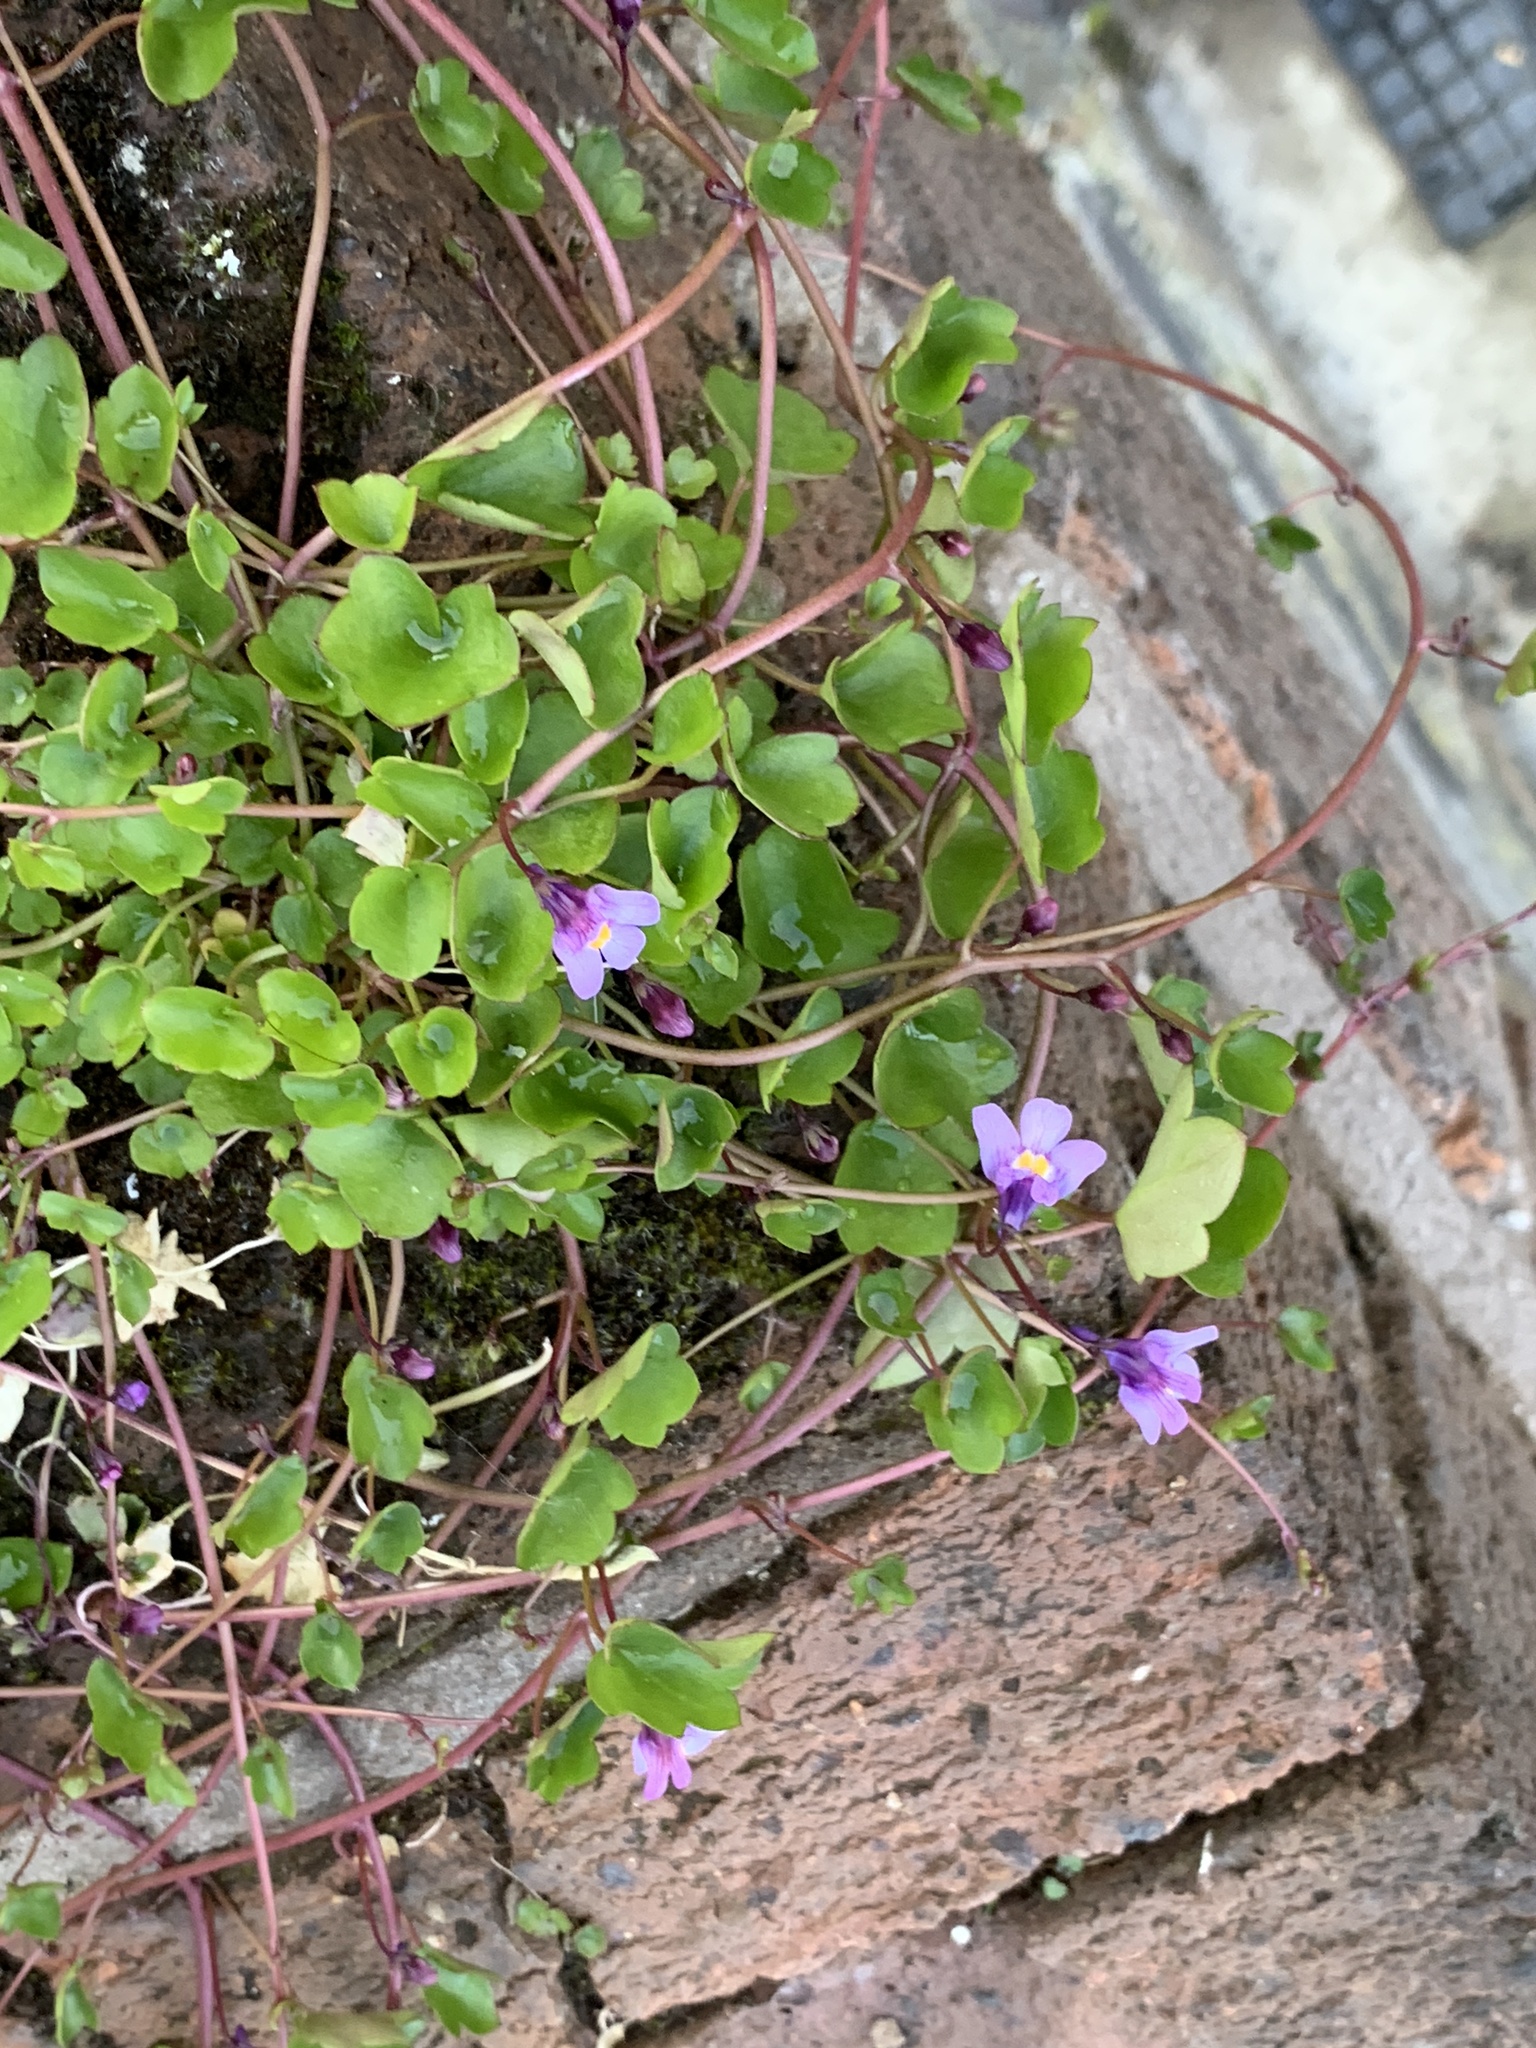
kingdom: Plantae
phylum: Tracheophyta
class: Magnoliopsida
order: Lamiales
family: Plantaginaceae
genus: Cymbalaria
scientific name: Cymbalaria muralis
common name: Ivy-leaved toadflax
